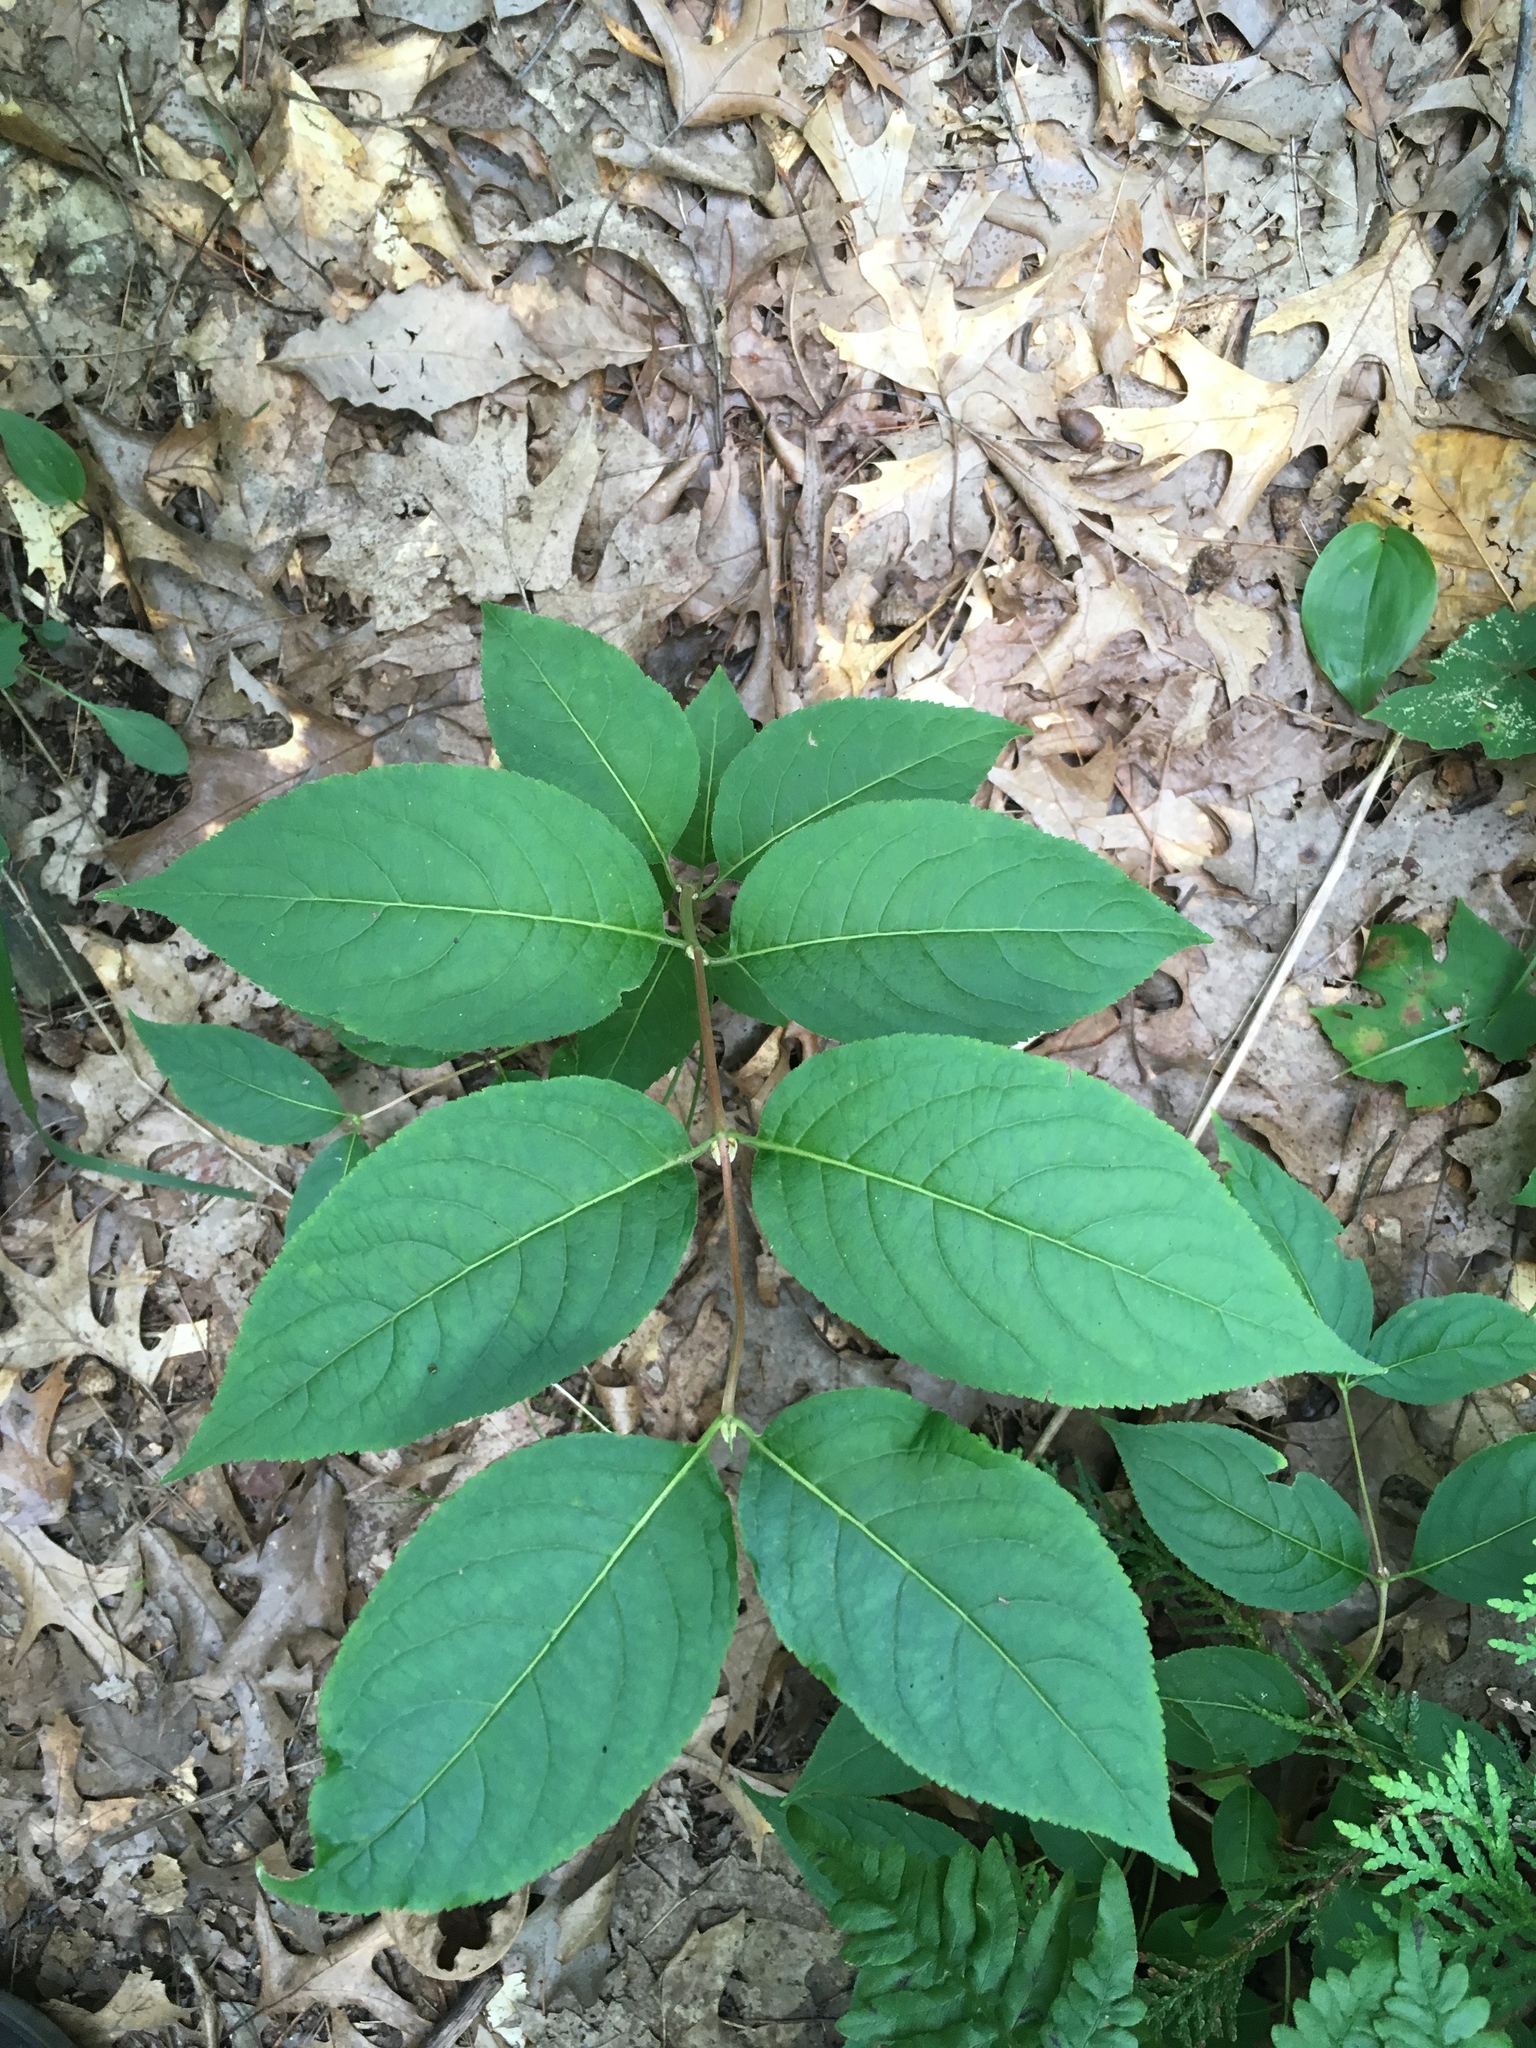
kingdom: Plantae
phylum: Tracheophyta
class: Magnoliopsida
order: Dipsacales
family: Caprifoliaceae
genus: Diervilla
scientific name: Diervilla lonicera
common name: Bush-honeysuckle
